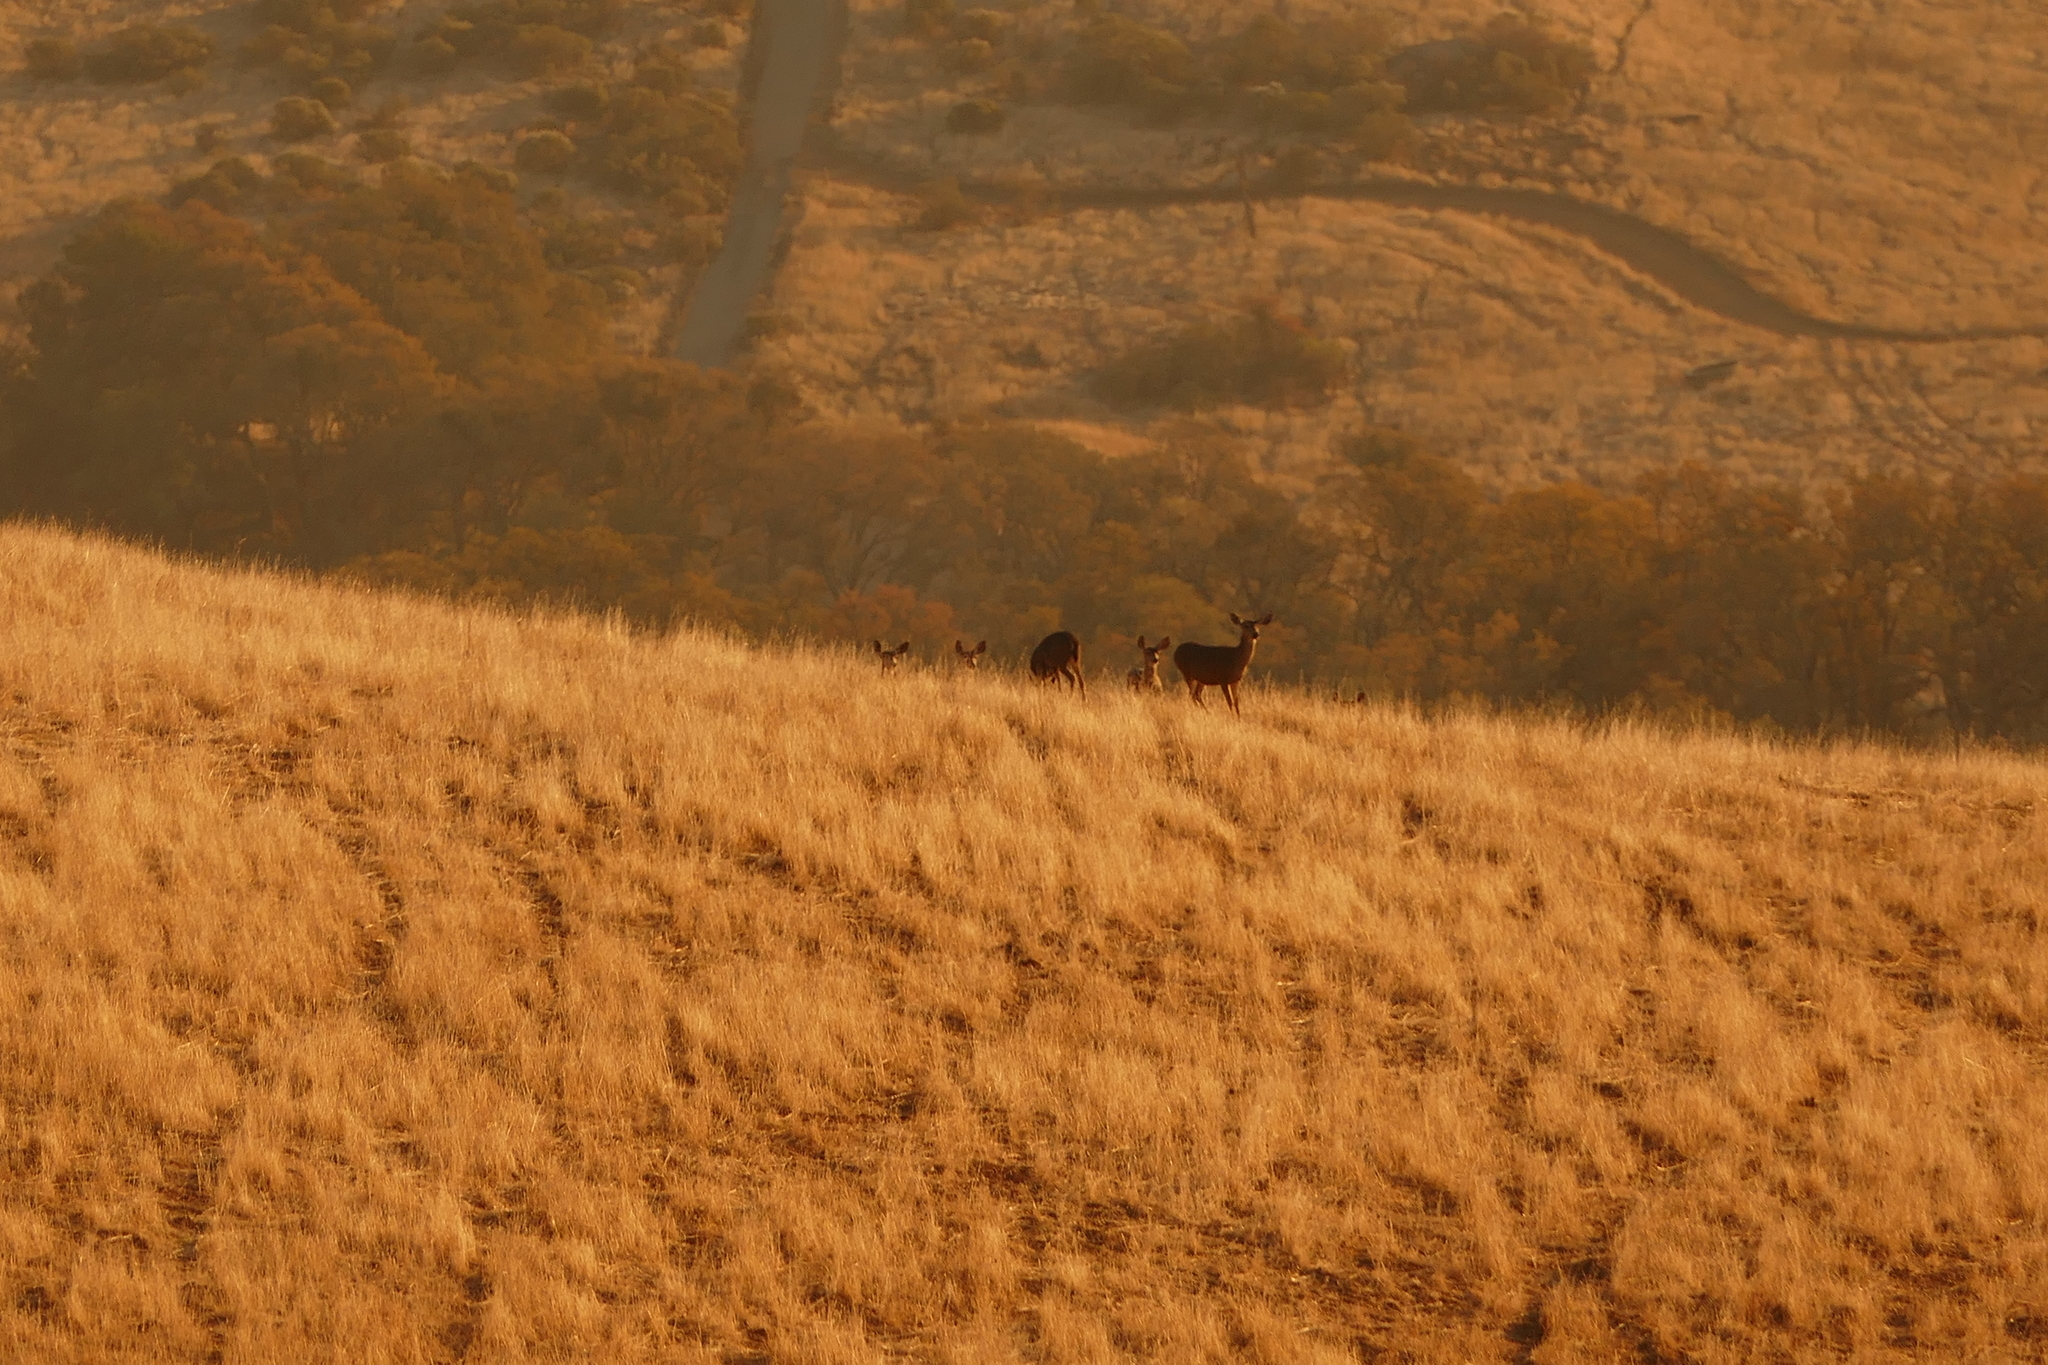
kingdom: Animalia
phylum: Chordata
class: Mammalia
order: Artiodactyla
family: Cervidae
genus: Odocoileus
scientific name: Odocoileus hemionus
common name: Mule deer
